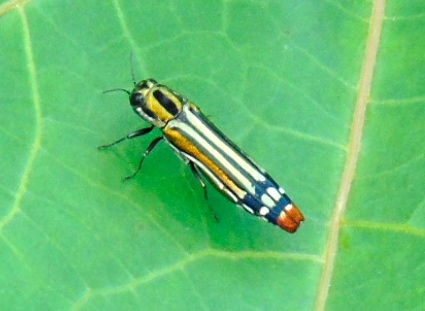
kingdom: Animalia
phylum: Arthropoda
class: Insecta
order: Coleoptera
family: Buprestidae
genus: Agrilus
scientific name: Agrilus catherinae
